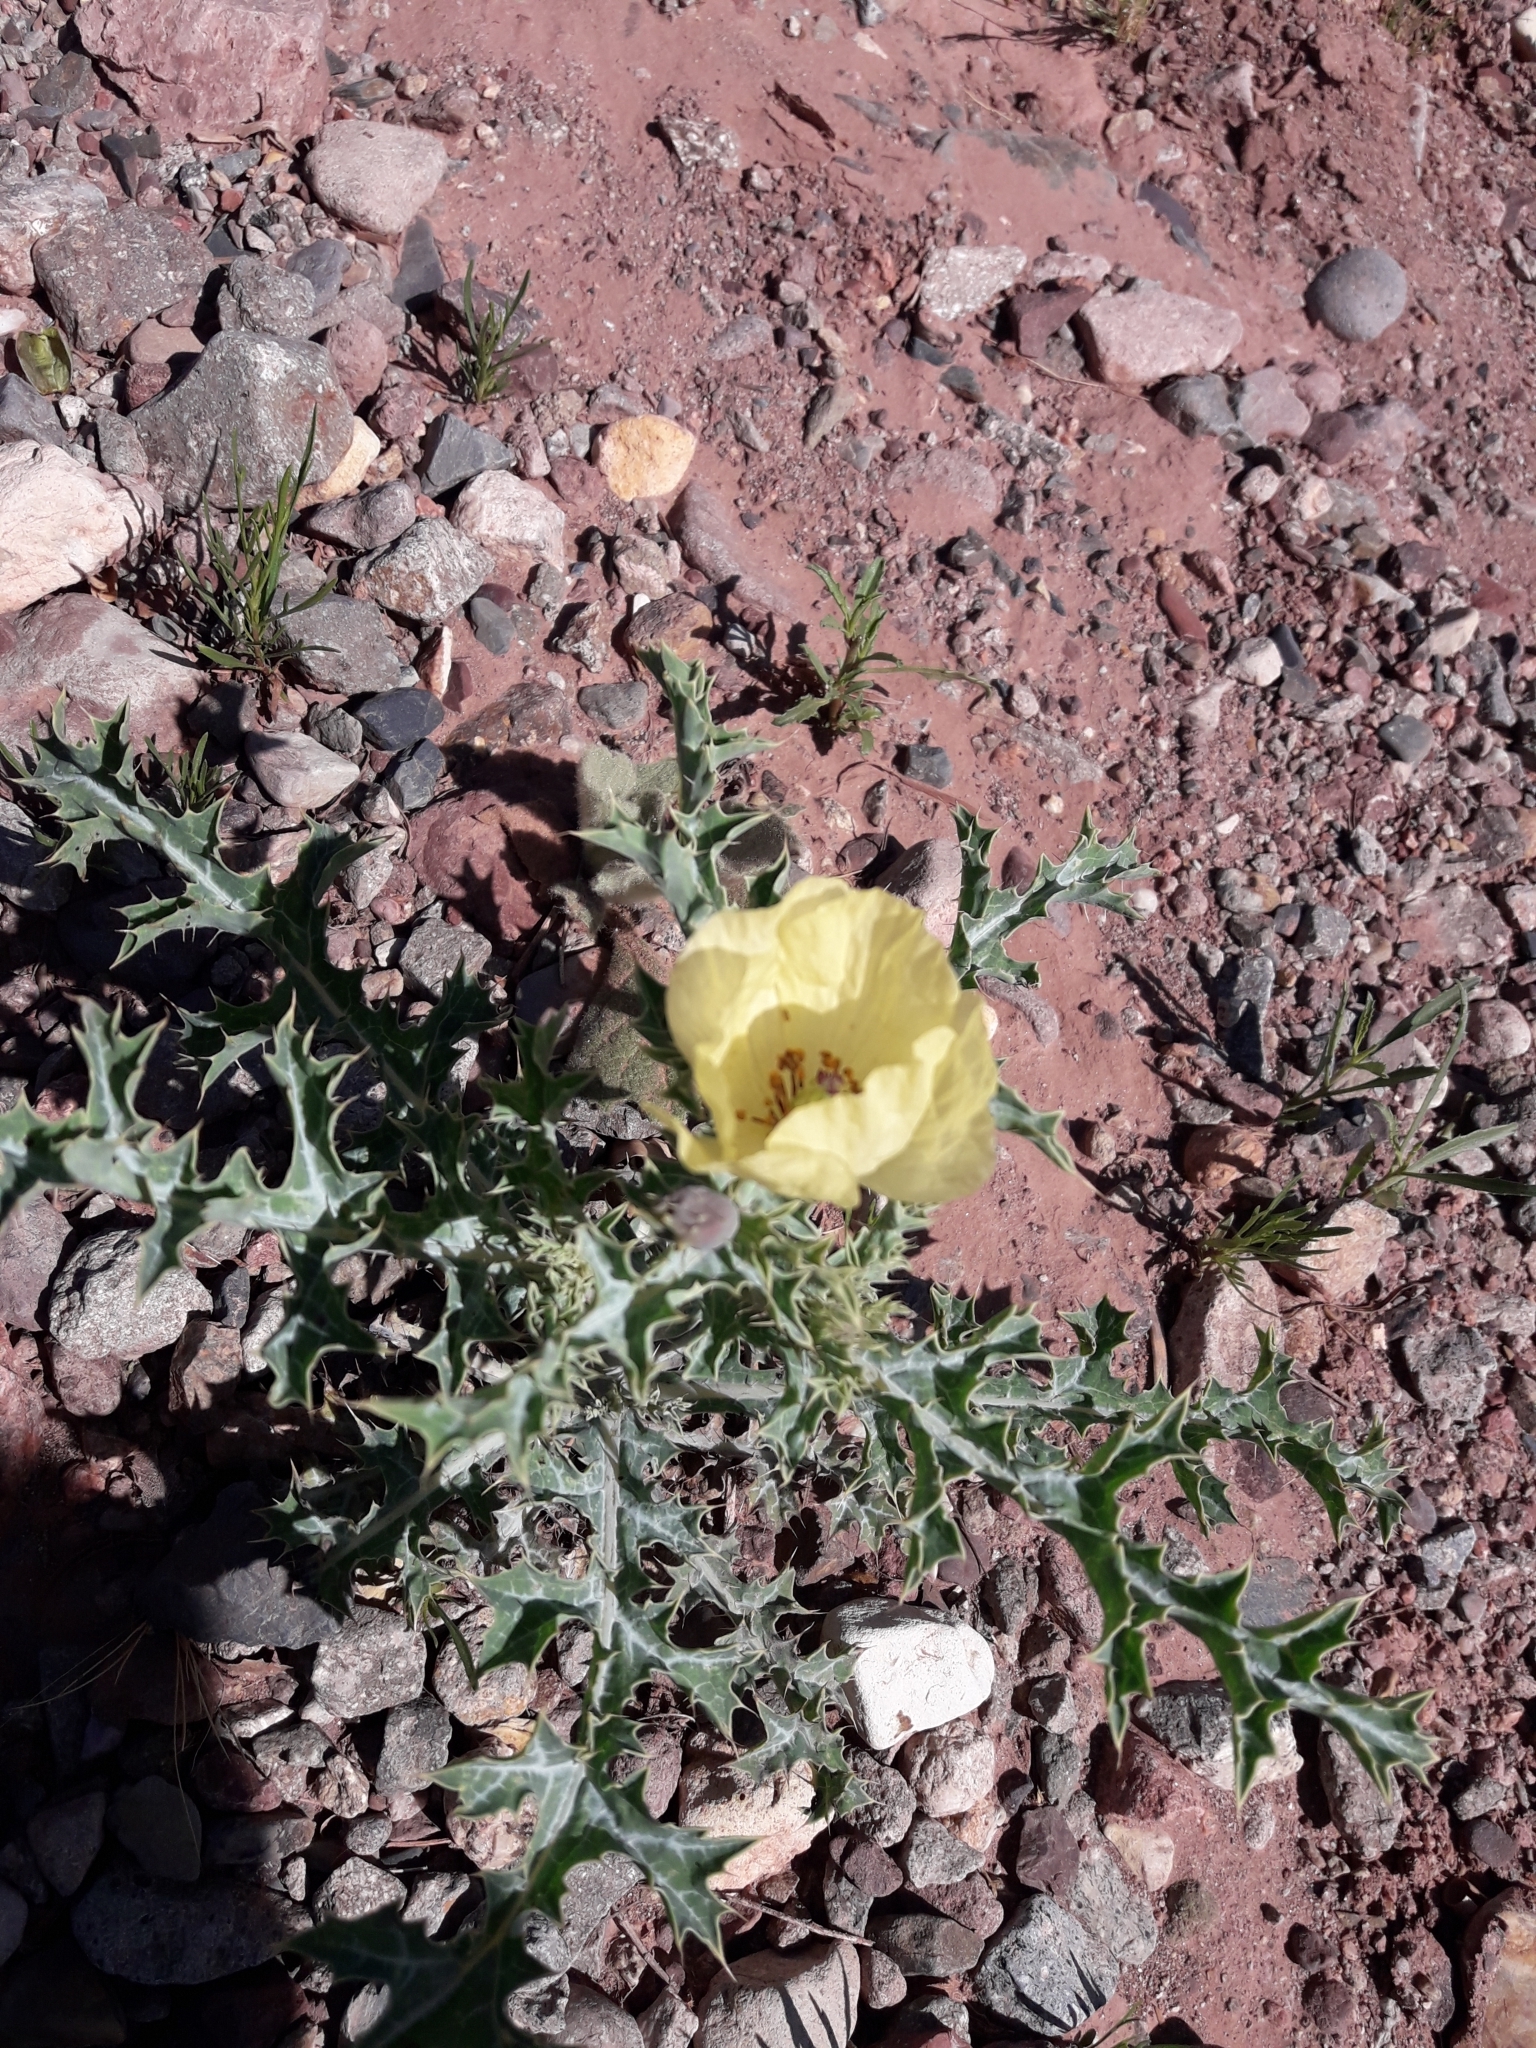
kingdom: Plantae
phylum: Tracheophyta
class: Magnoliopsida
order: Ranunculales
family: Papaveraceae
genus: Argemone
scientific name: Argemone subfusiformis
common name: American-poppy
